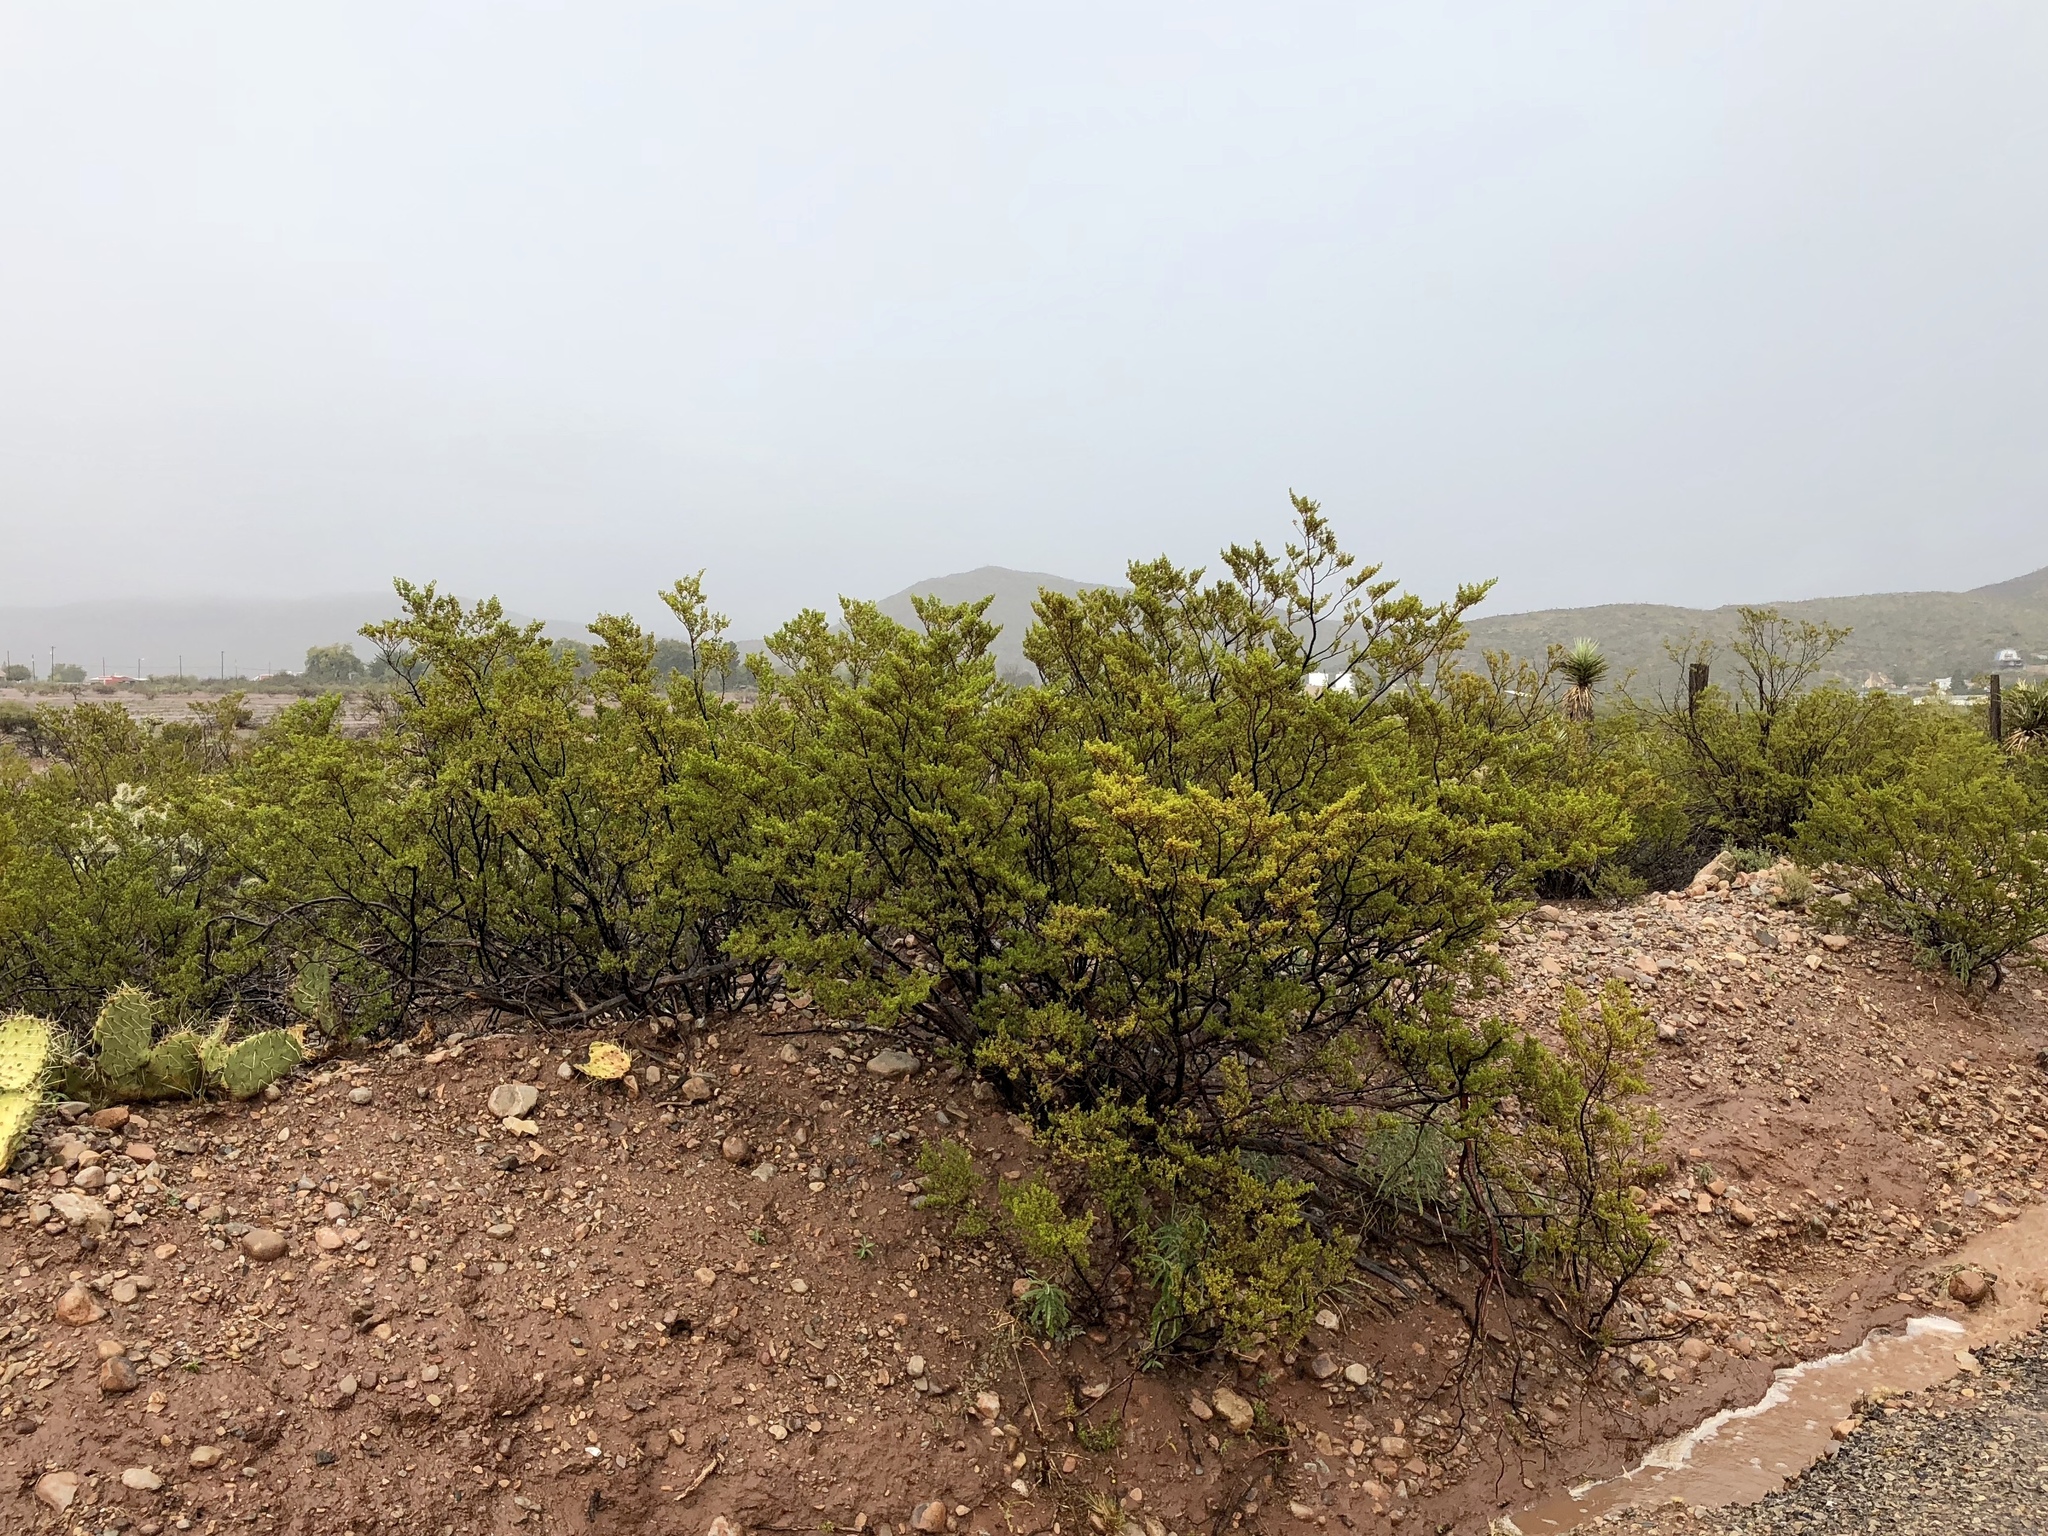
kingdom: Plantae
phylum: Tracheophyta
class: Magnoliopsida
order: Zygophyllales
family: Zygophyllaceae
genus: Larrea
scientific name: Larrea tridentata
